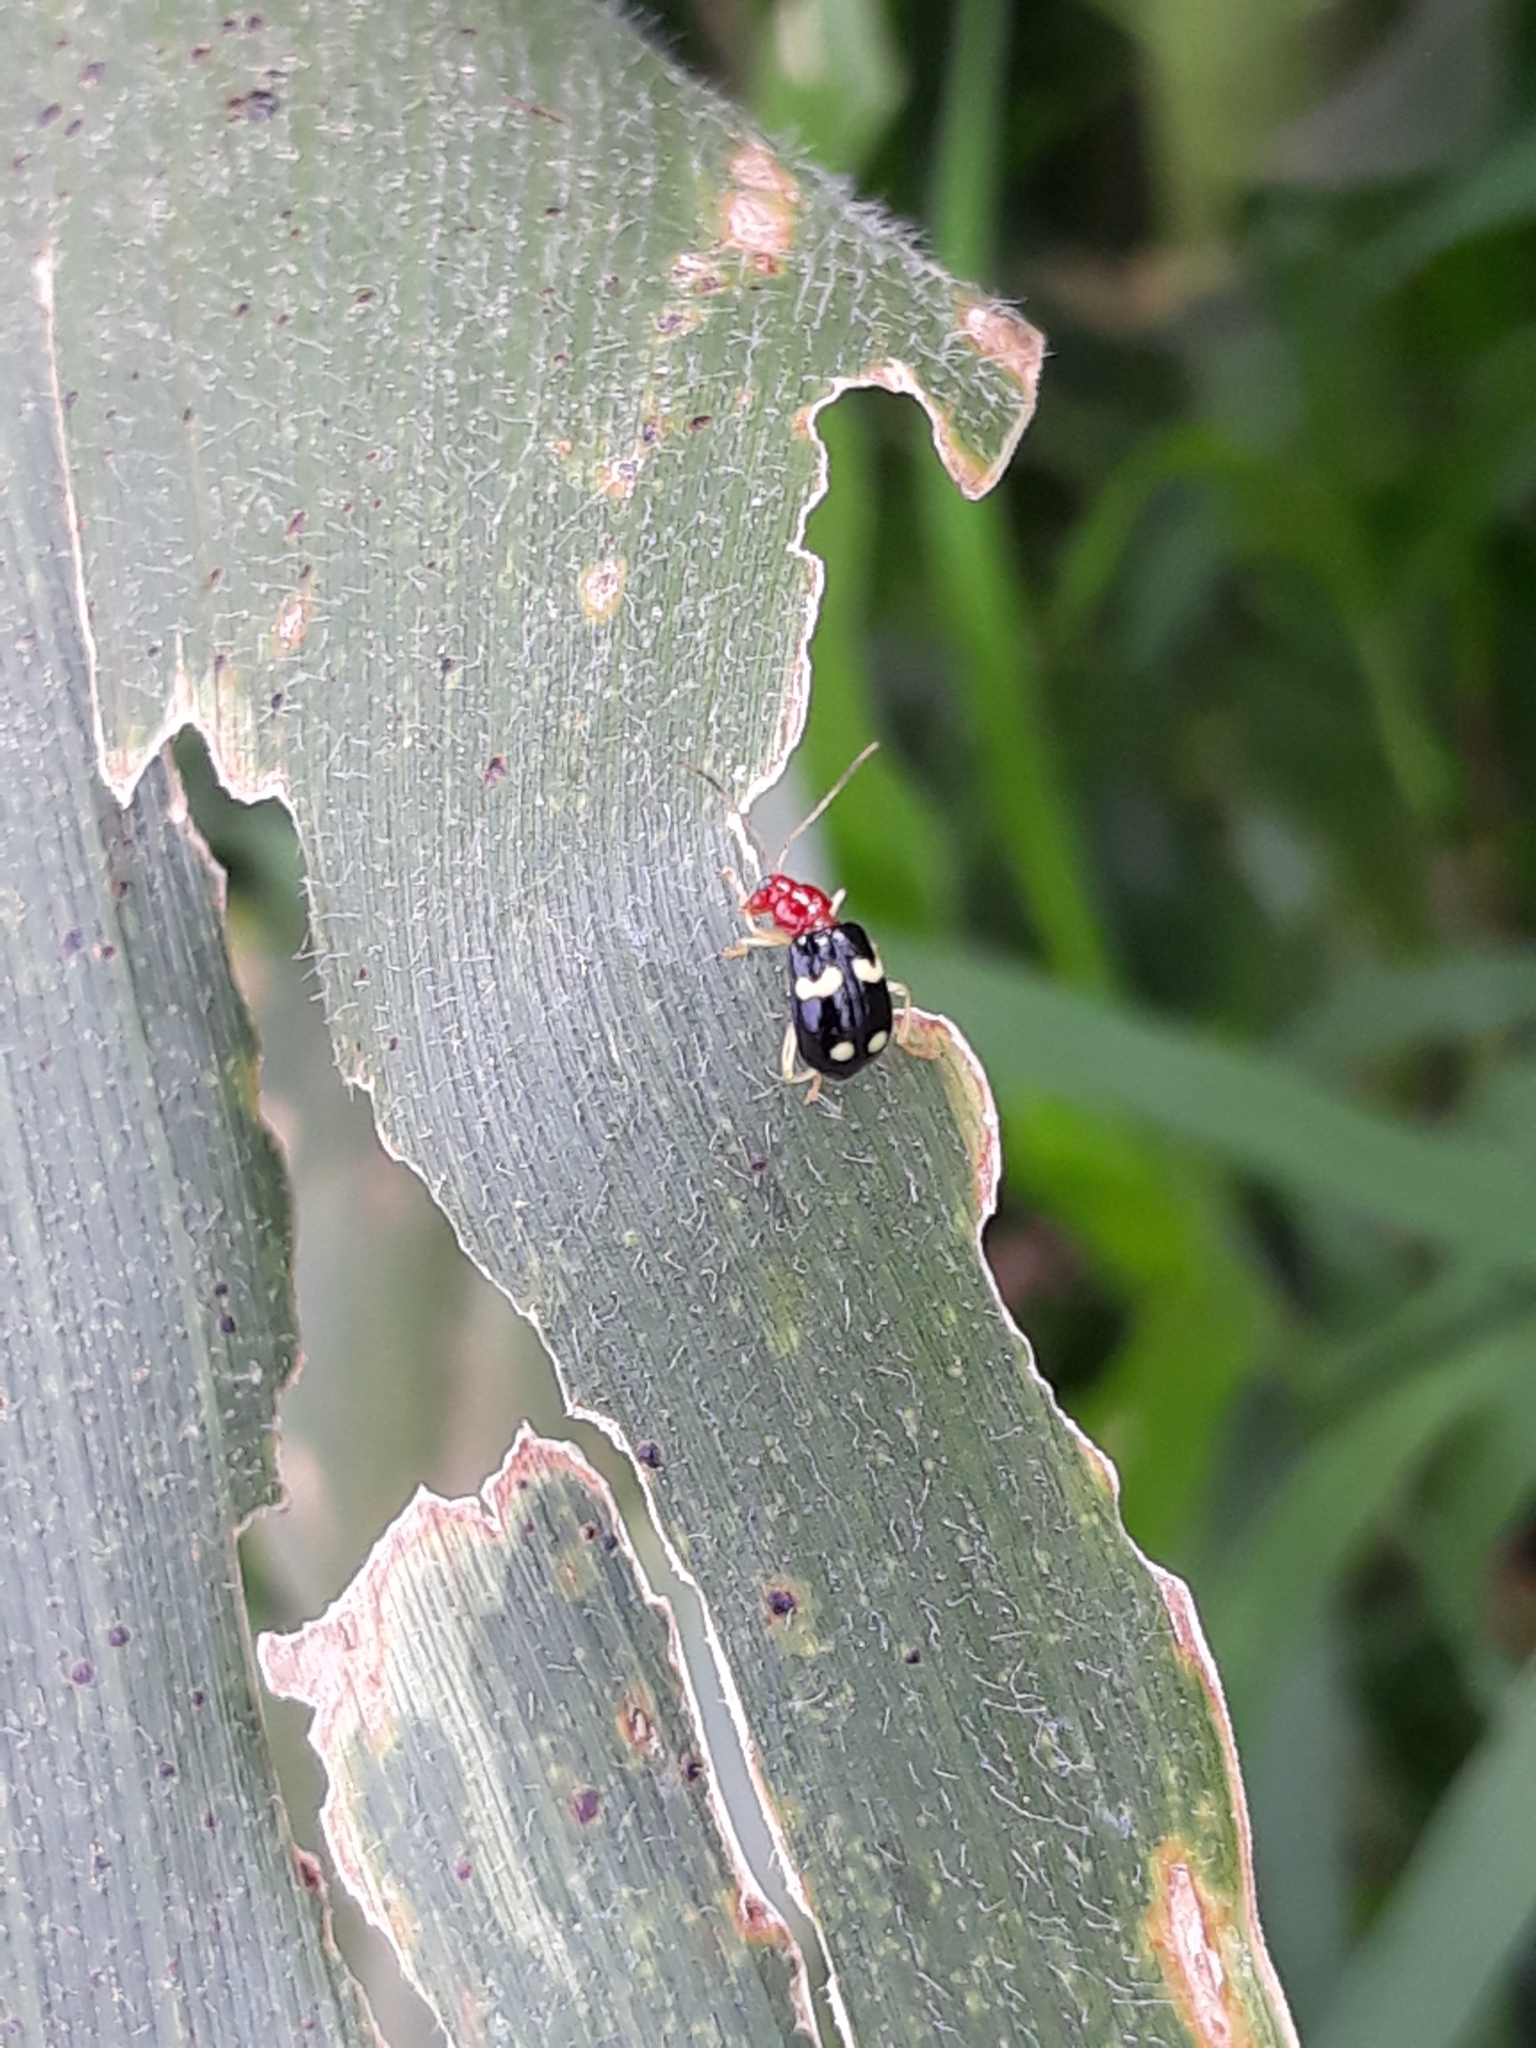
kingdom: Animalia
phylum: Arthropoda
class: Insecta
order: Coleoptera
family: Chrysomelidae
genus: Gynandrobrotica
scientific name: Gynandrobrotica
